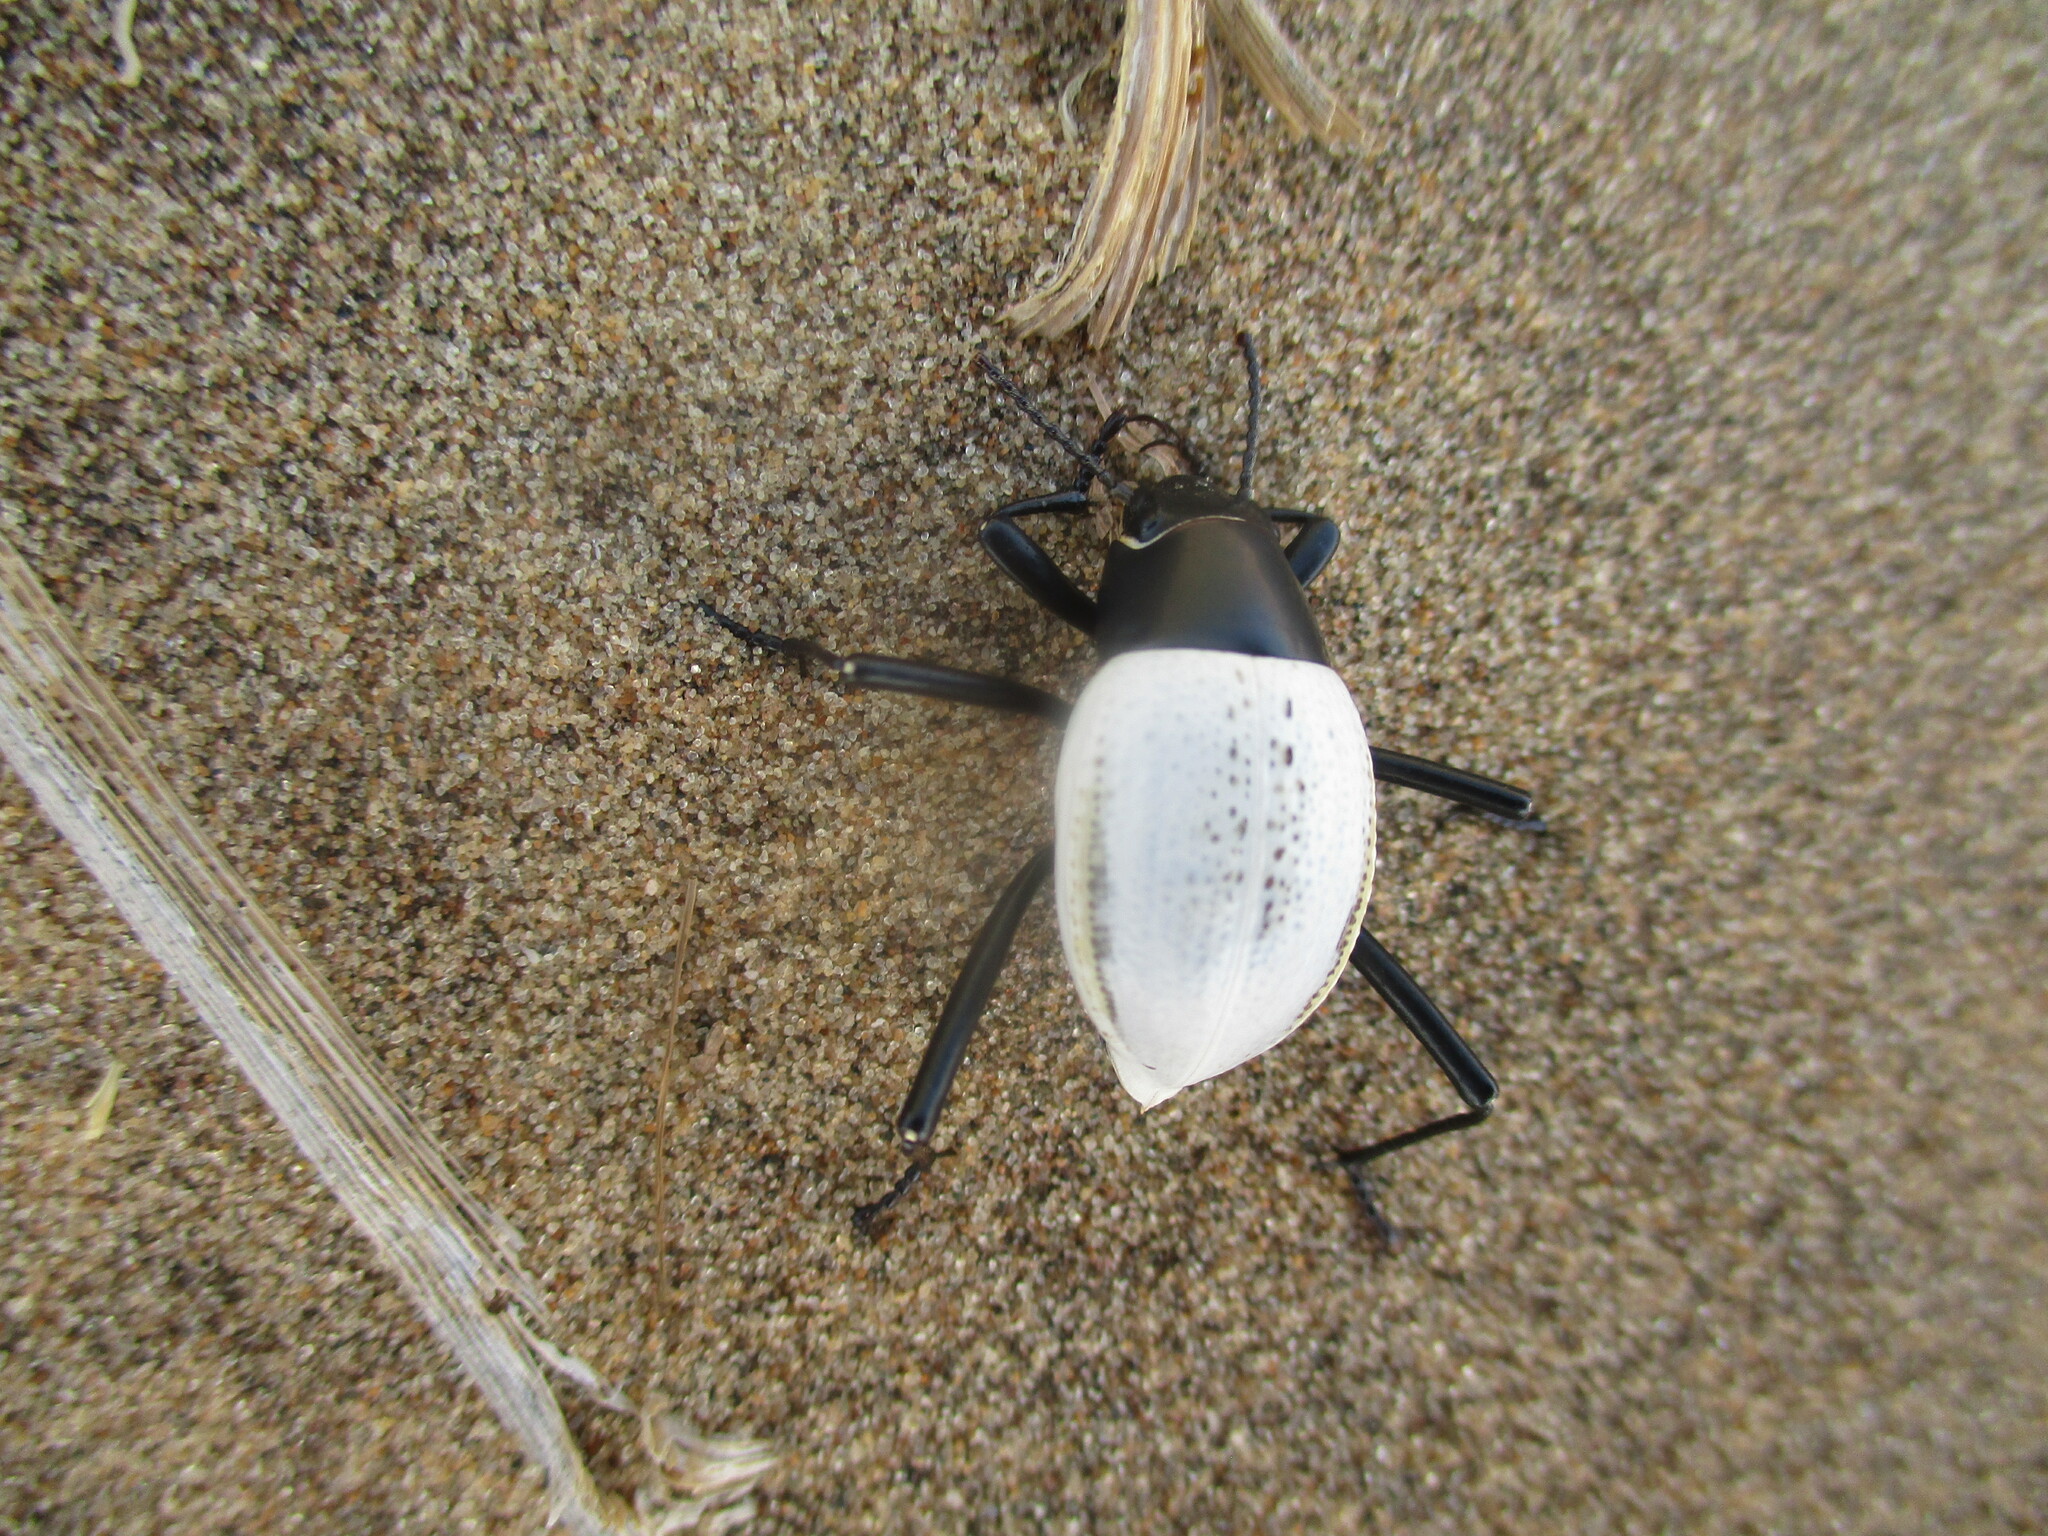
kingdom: Animalia
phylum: Arthropoda
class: Insecta
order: Coleoptera
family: Tenebrionidae
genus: Onymacris
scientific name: Onymacris
